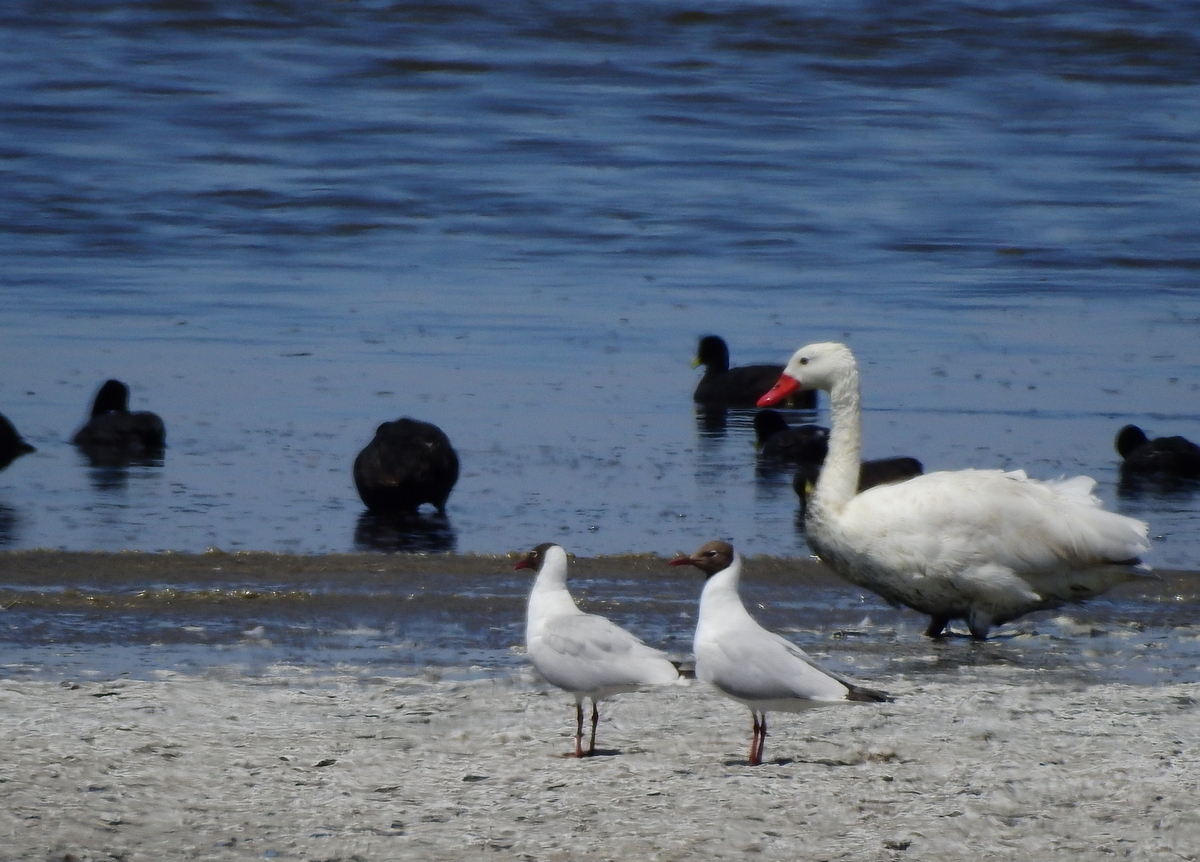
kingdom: Animalia
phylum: Chordata
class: Aves
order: Charadriiformes
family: Laridae
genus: Chroicocephalus
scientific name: Chroicocephalus maculipennis
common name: Brown-hooded gull
